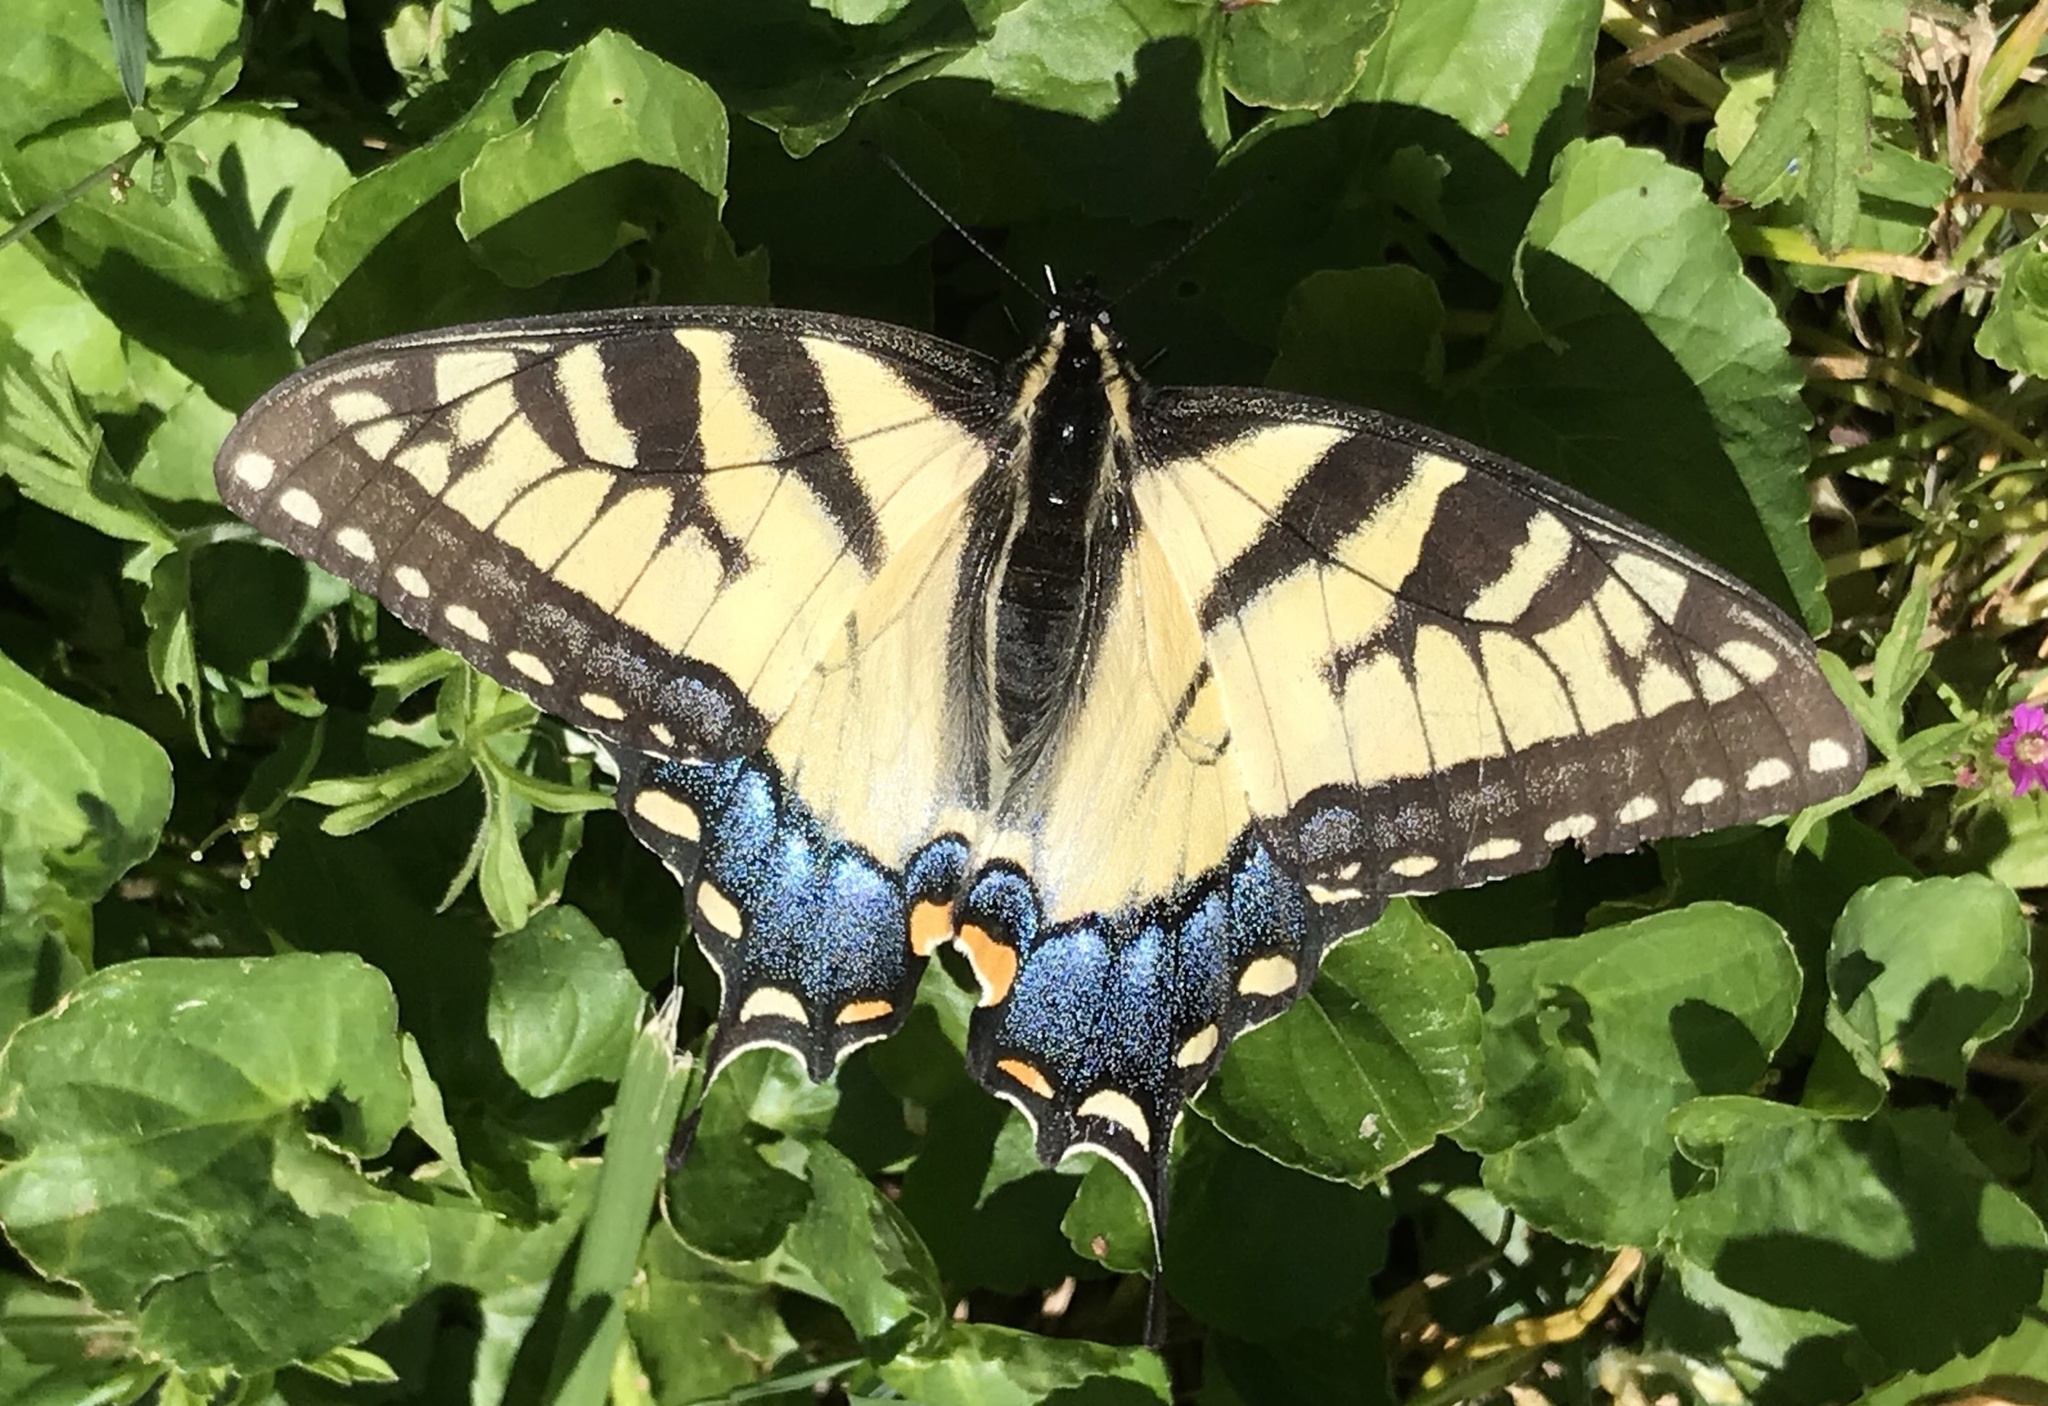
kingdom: Animalia
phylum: Arthropoda
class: Insecta
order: Lepidoptera
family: Papilionidae
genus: Papilio
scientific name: Papilio glaucus
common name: Tiger swallowtail
